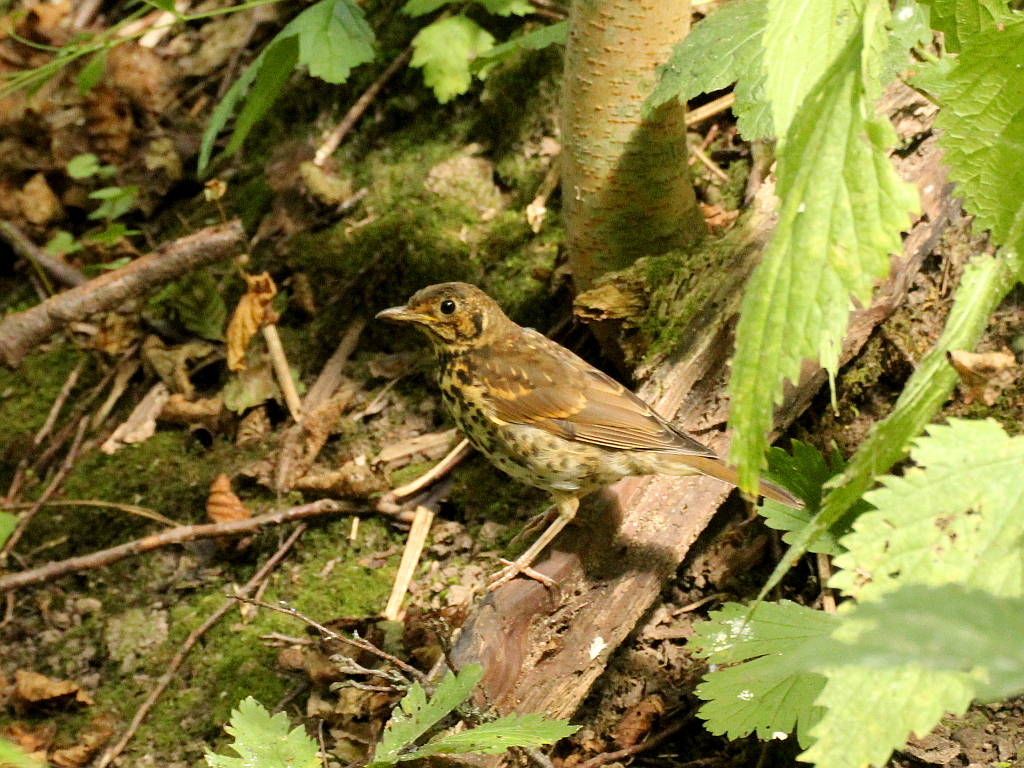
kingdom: Animalia
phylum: Chordata
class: Aves
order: Passeriformes
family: Turdidae
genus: Turdus
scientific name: Turdus philomelos
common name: Song thrush
